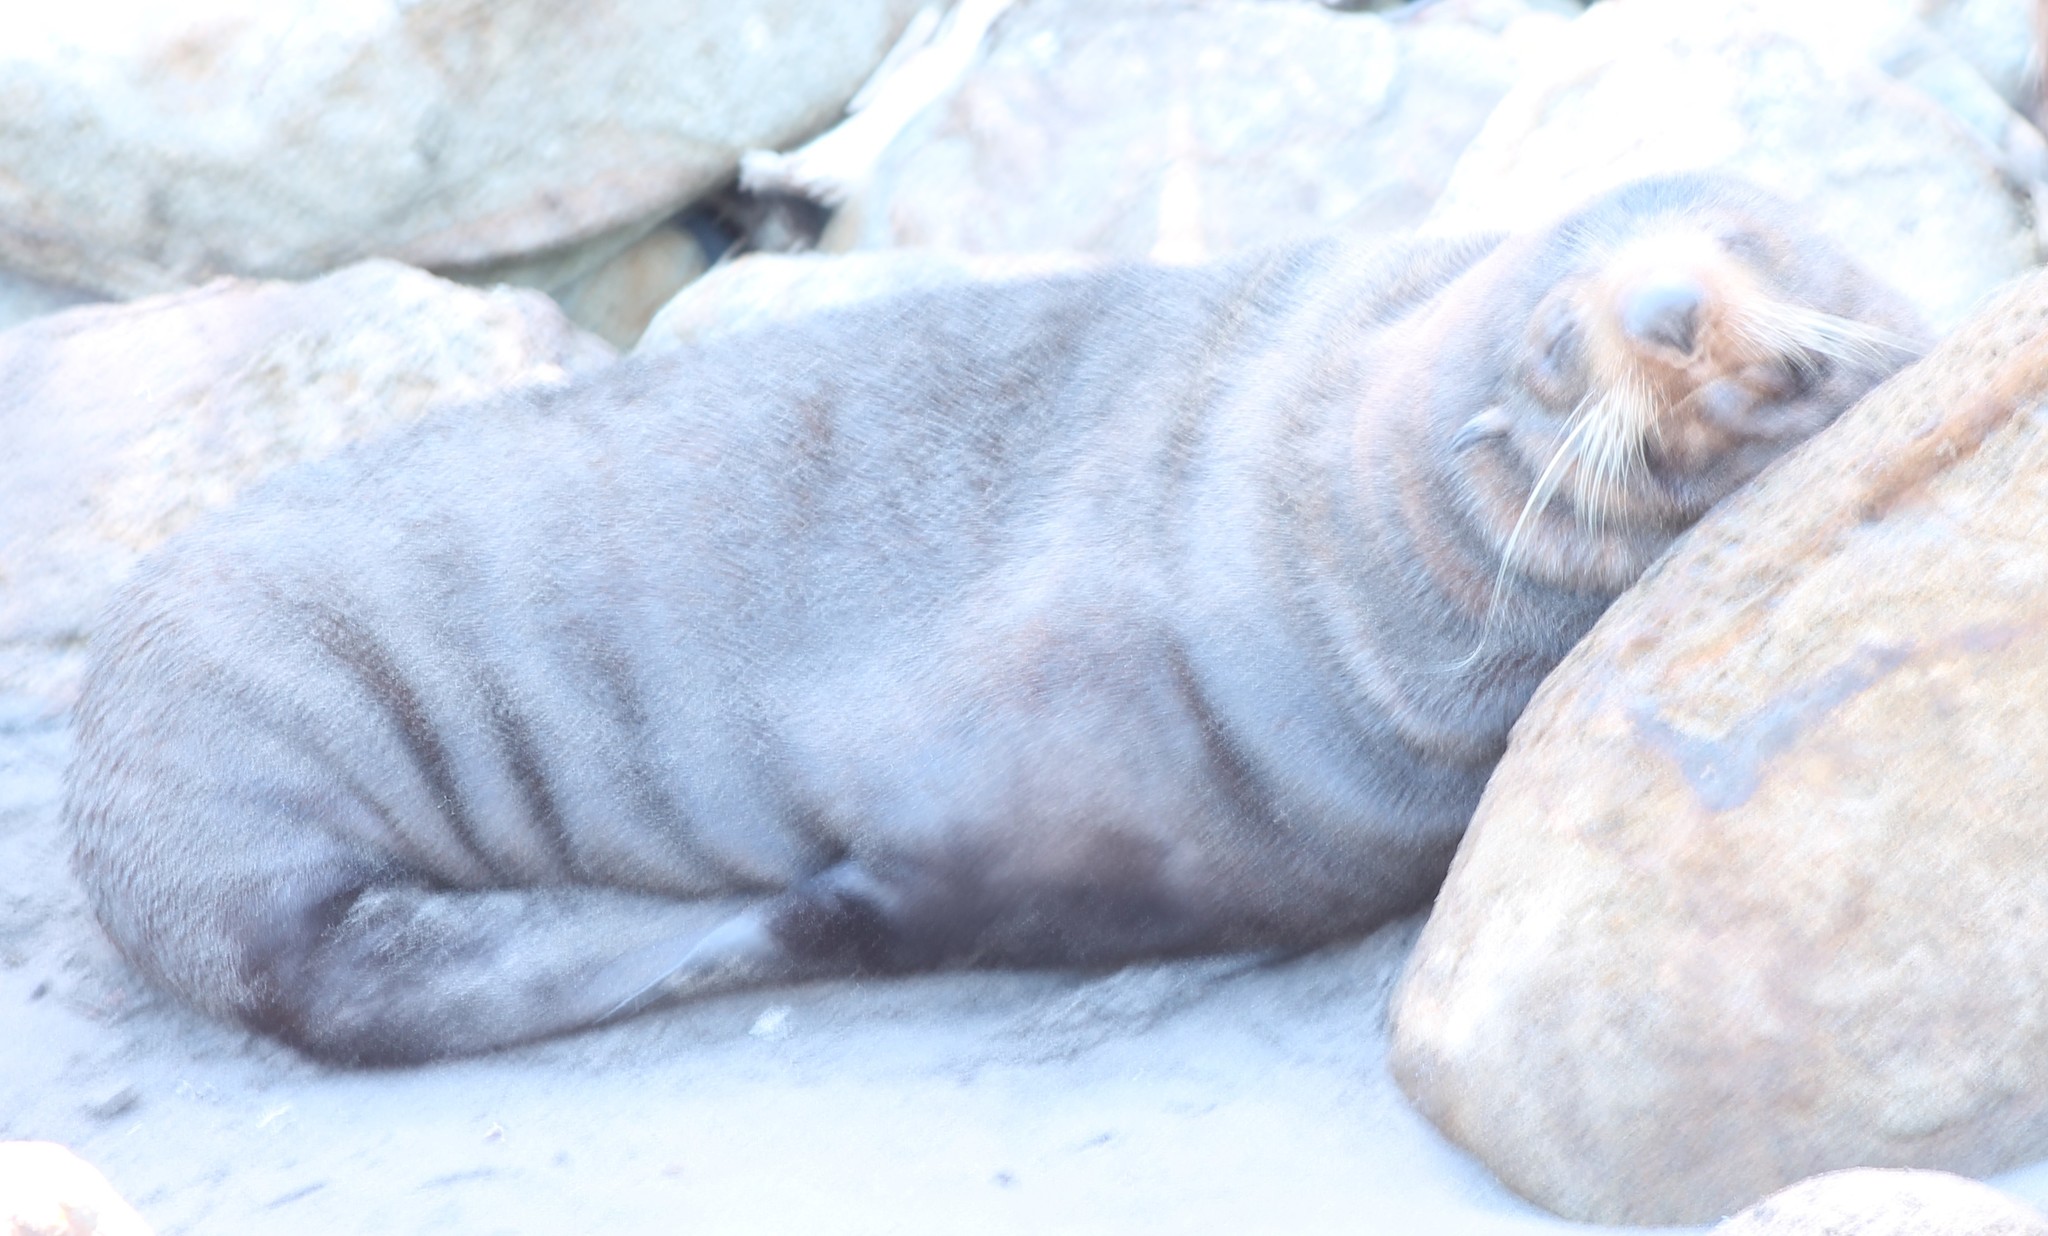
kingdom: Animalia
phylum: Chordata
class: Mammalia
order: Carnivora
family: Otariidae
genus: Arctocephalus
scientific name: Arctocephalus forsteri
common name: New zealand fur seal
